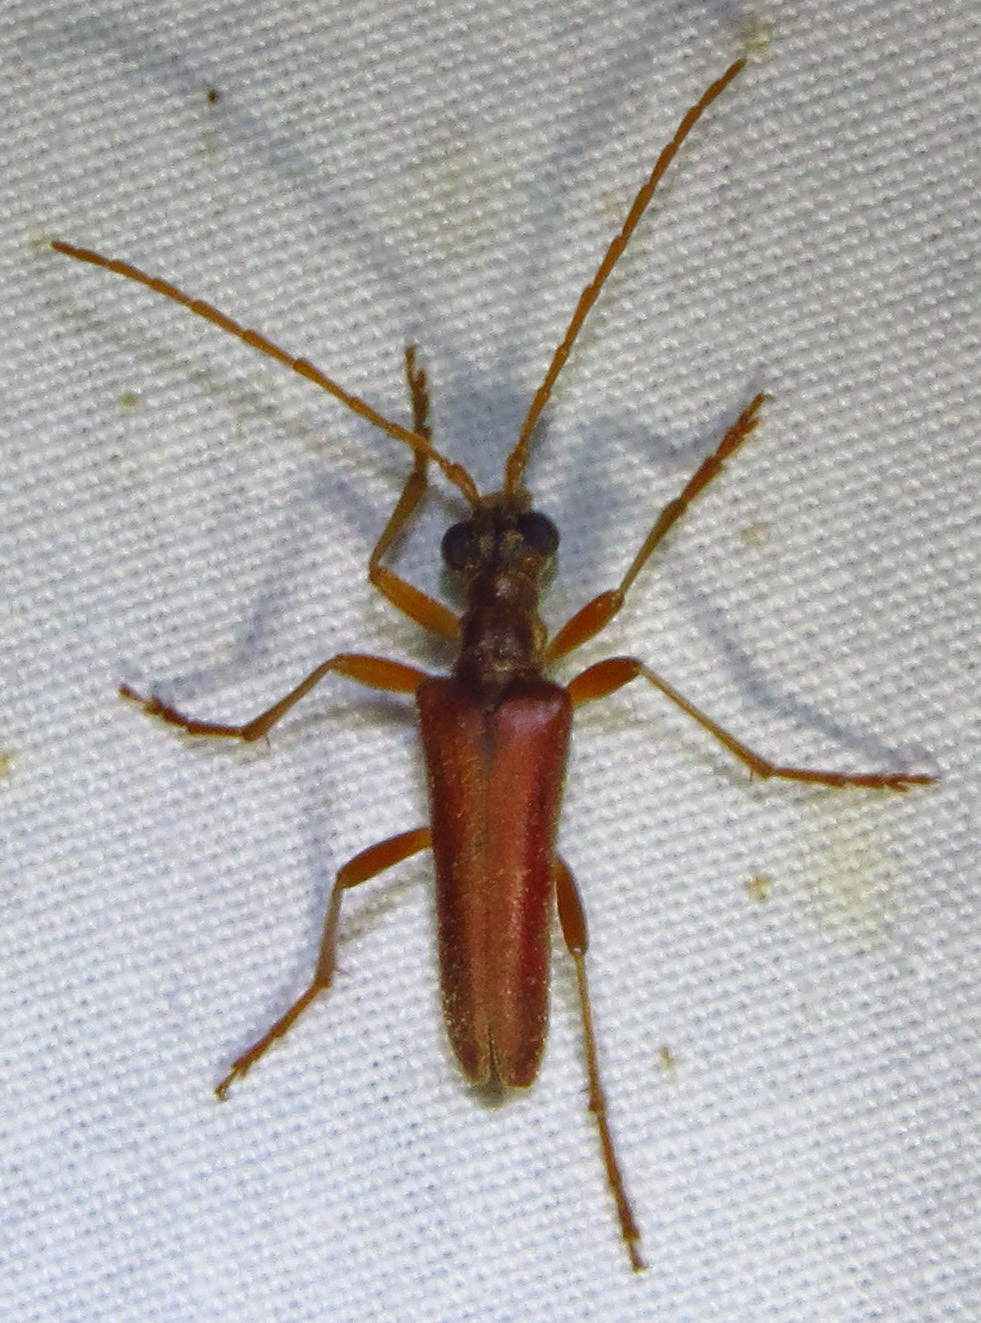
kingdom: Animalia
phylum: Arthropoda
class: Insecta
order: Coleoptera
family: Cerambycidae
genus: Stenocorus
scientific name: Stenocorus cinnamopterus
